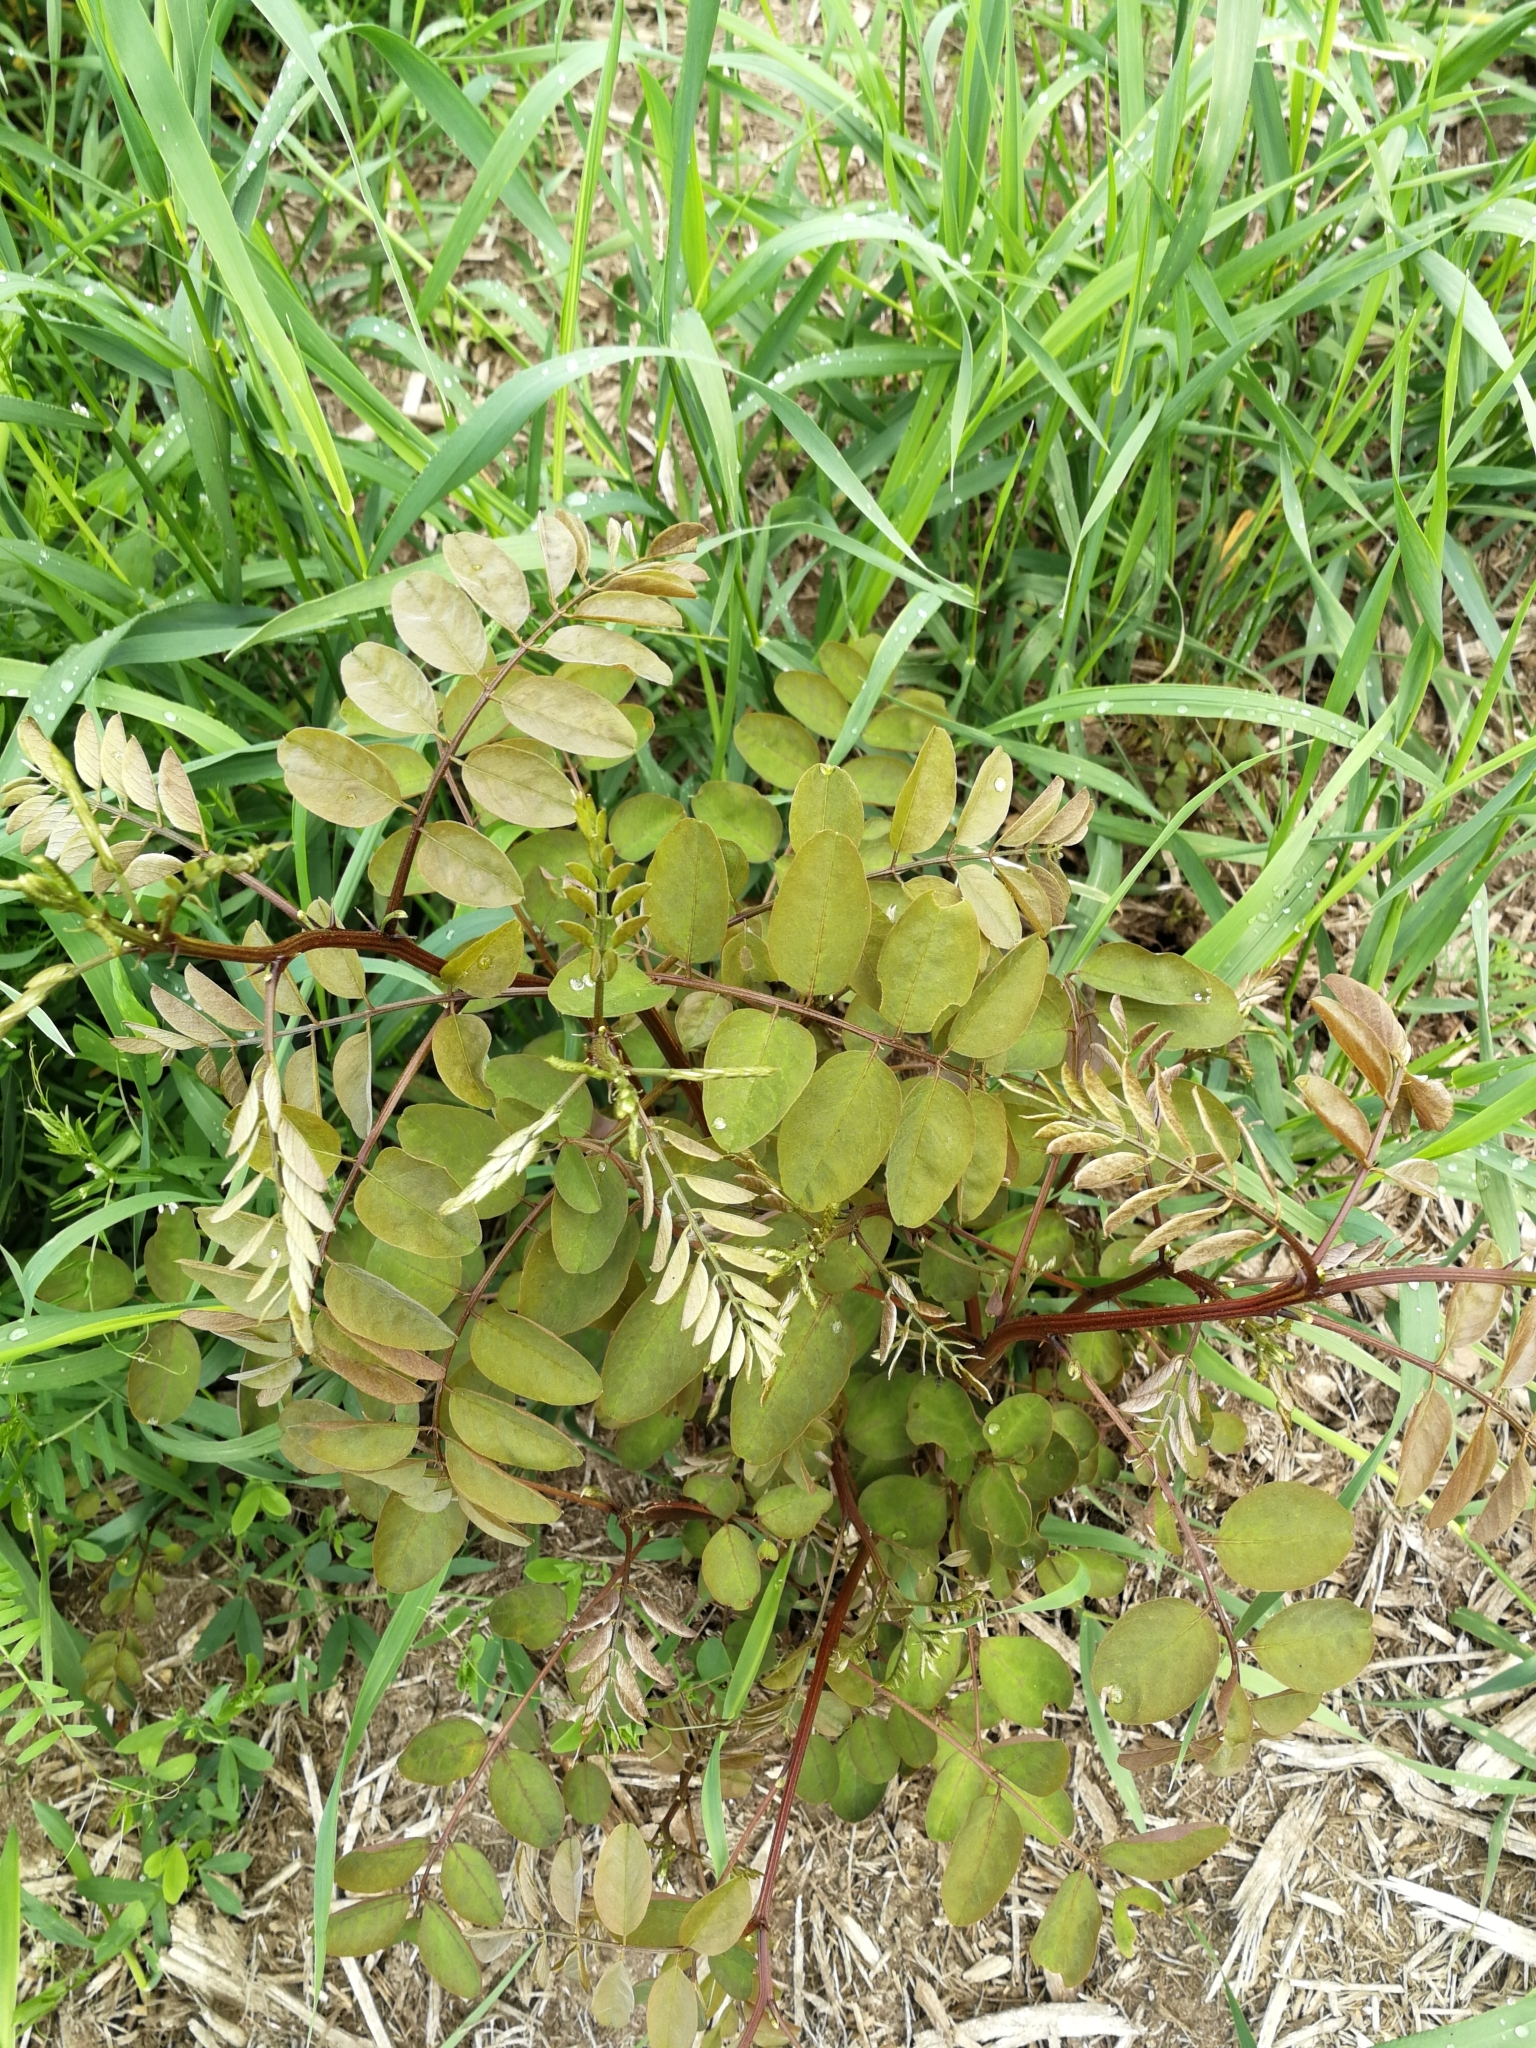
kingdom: Plantae
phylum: Tracheophyta
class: Magnoliopsida
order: Fabales
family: Fabaceae
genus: Robinia
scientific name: Robinia pseudoacacia
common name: Black locust
